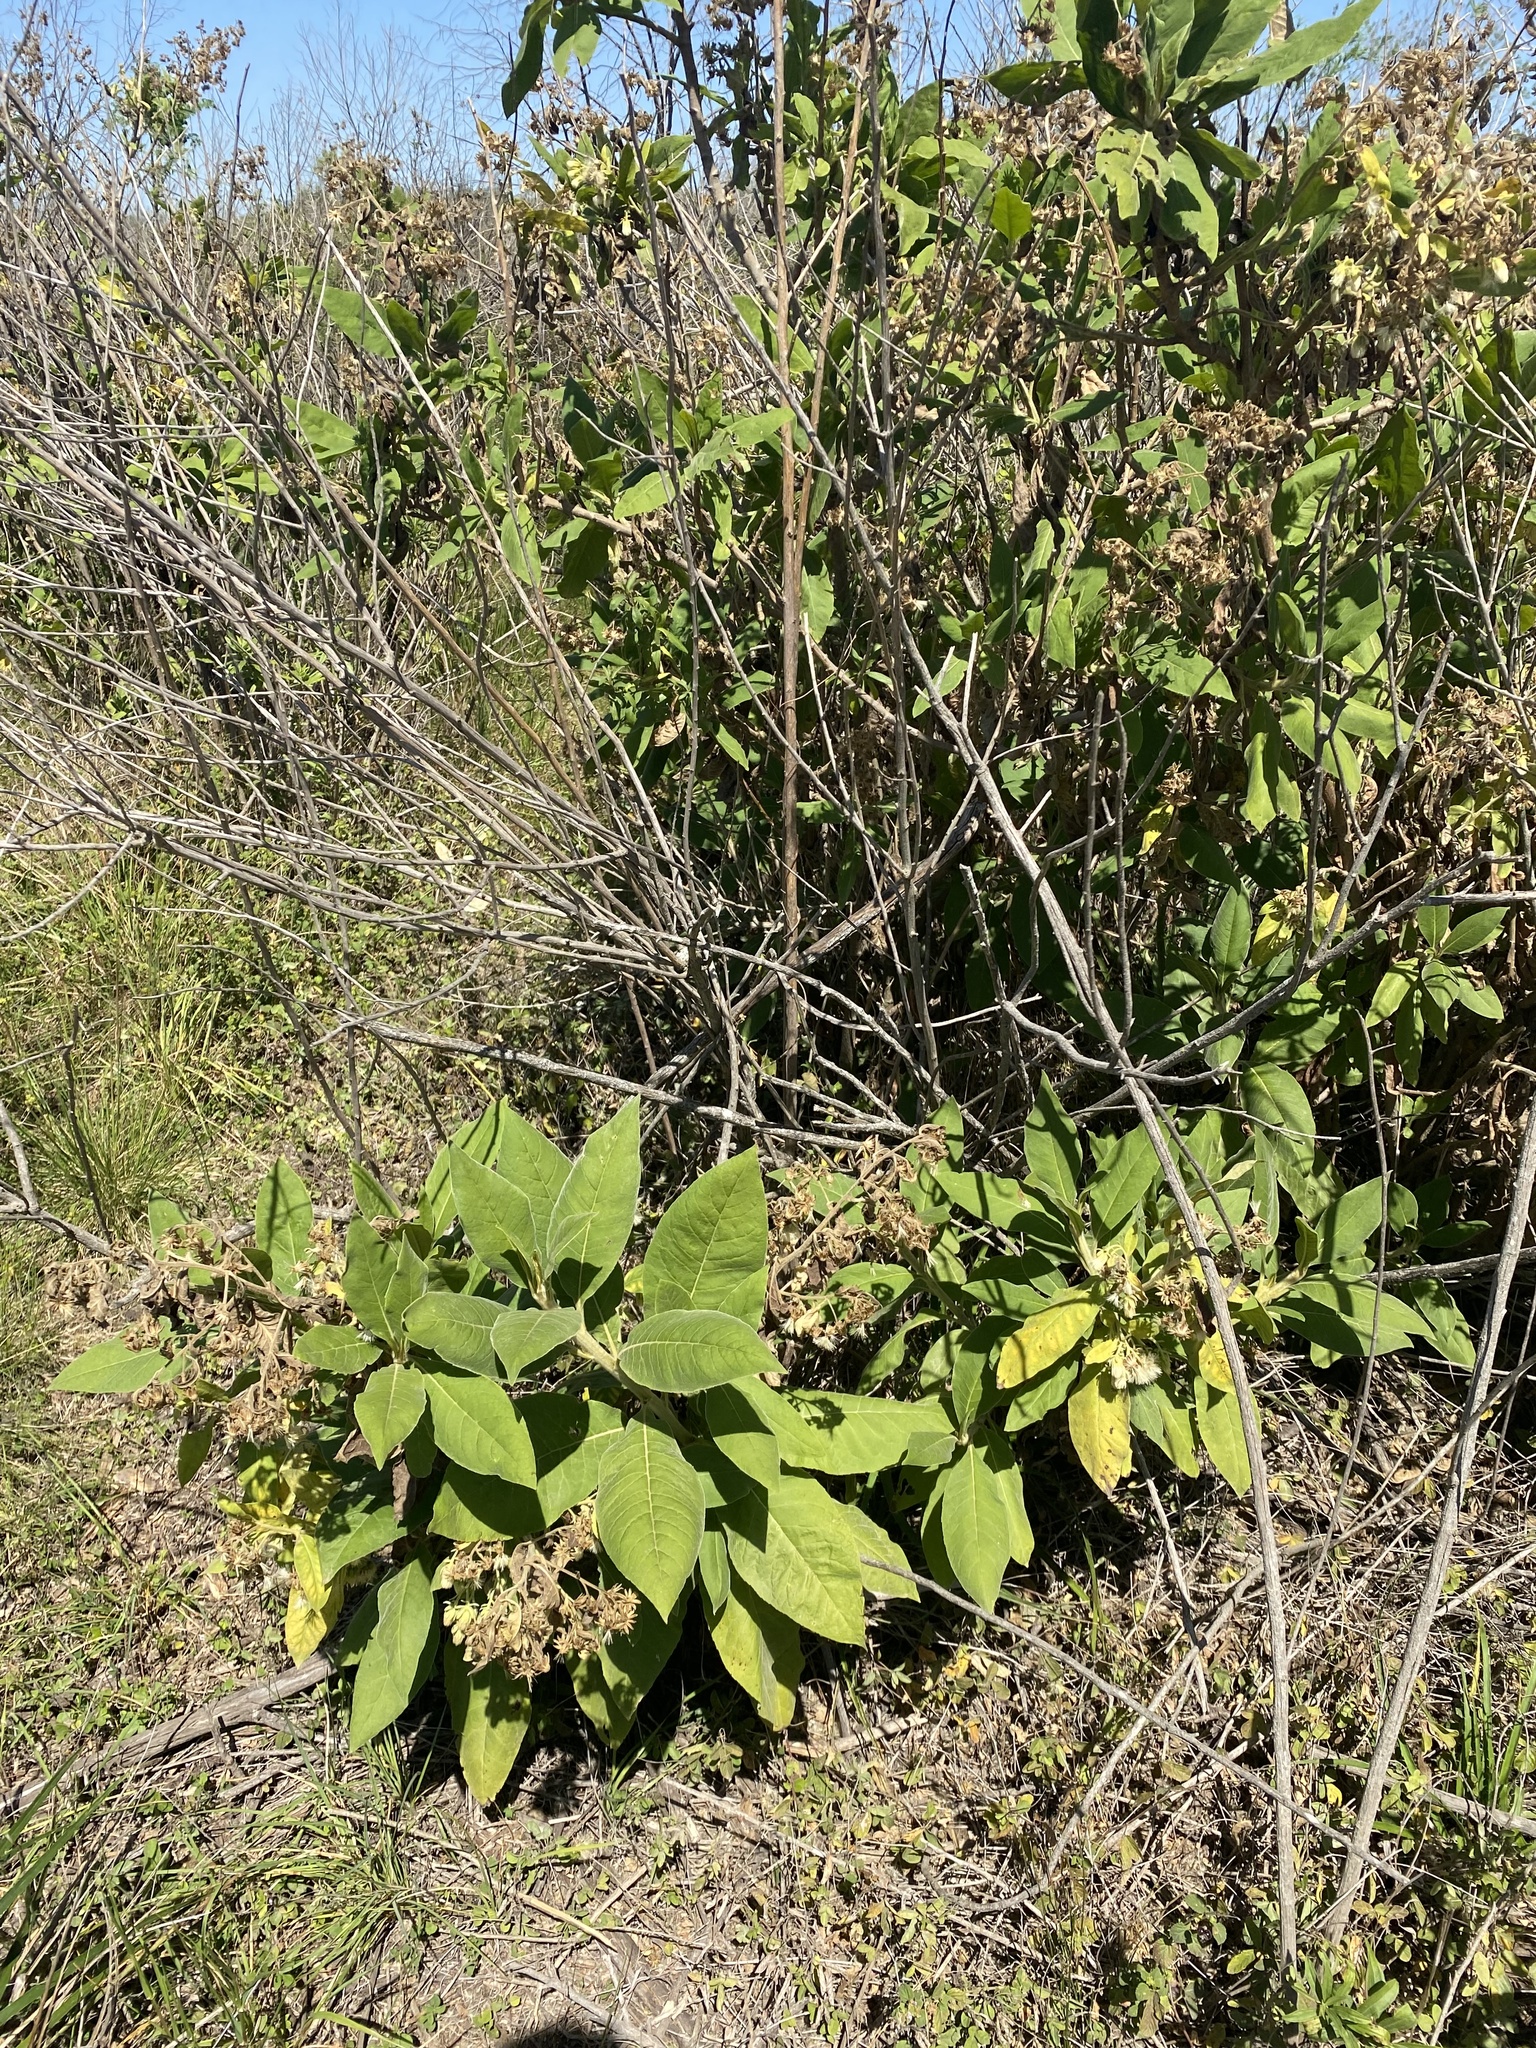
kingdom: Plantae
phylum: Tracheophyta
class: Magnoliopsida
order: Asterales
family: Asteraceae
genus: Trixis
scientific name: Trixis praestans
